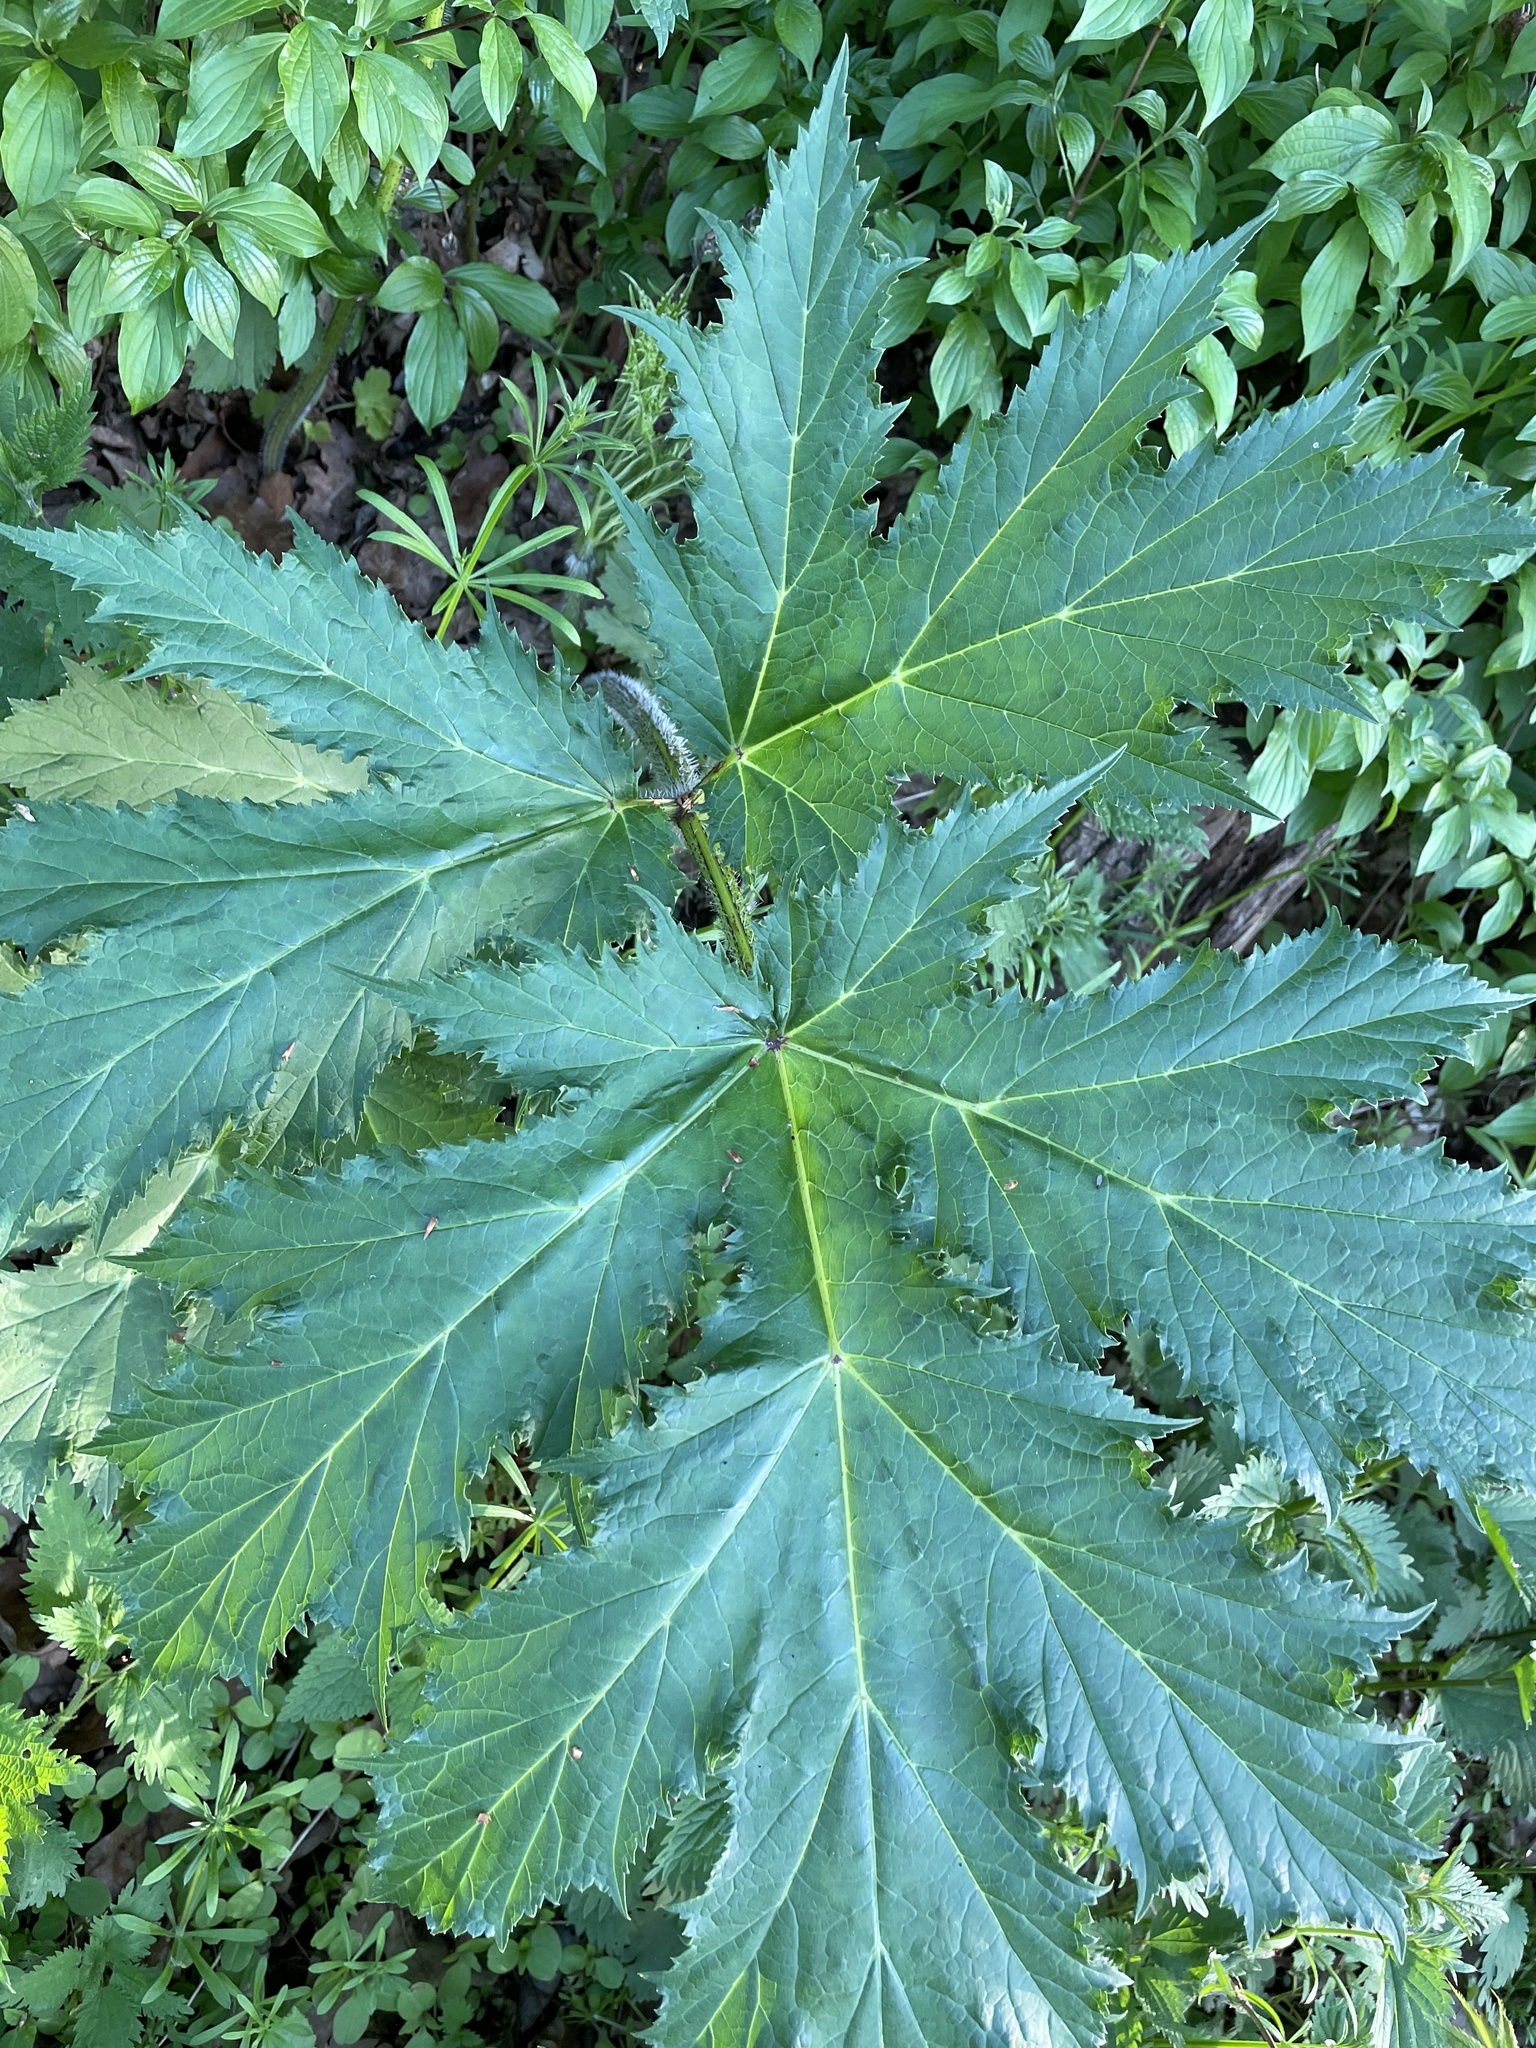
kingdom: Plantae
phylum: Tracheophyta
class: Magnoliopsida
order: Apiales
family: Apiaceae
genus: Heracleum
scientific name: Heracleum mantegazzianum
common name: Giant hogweed
